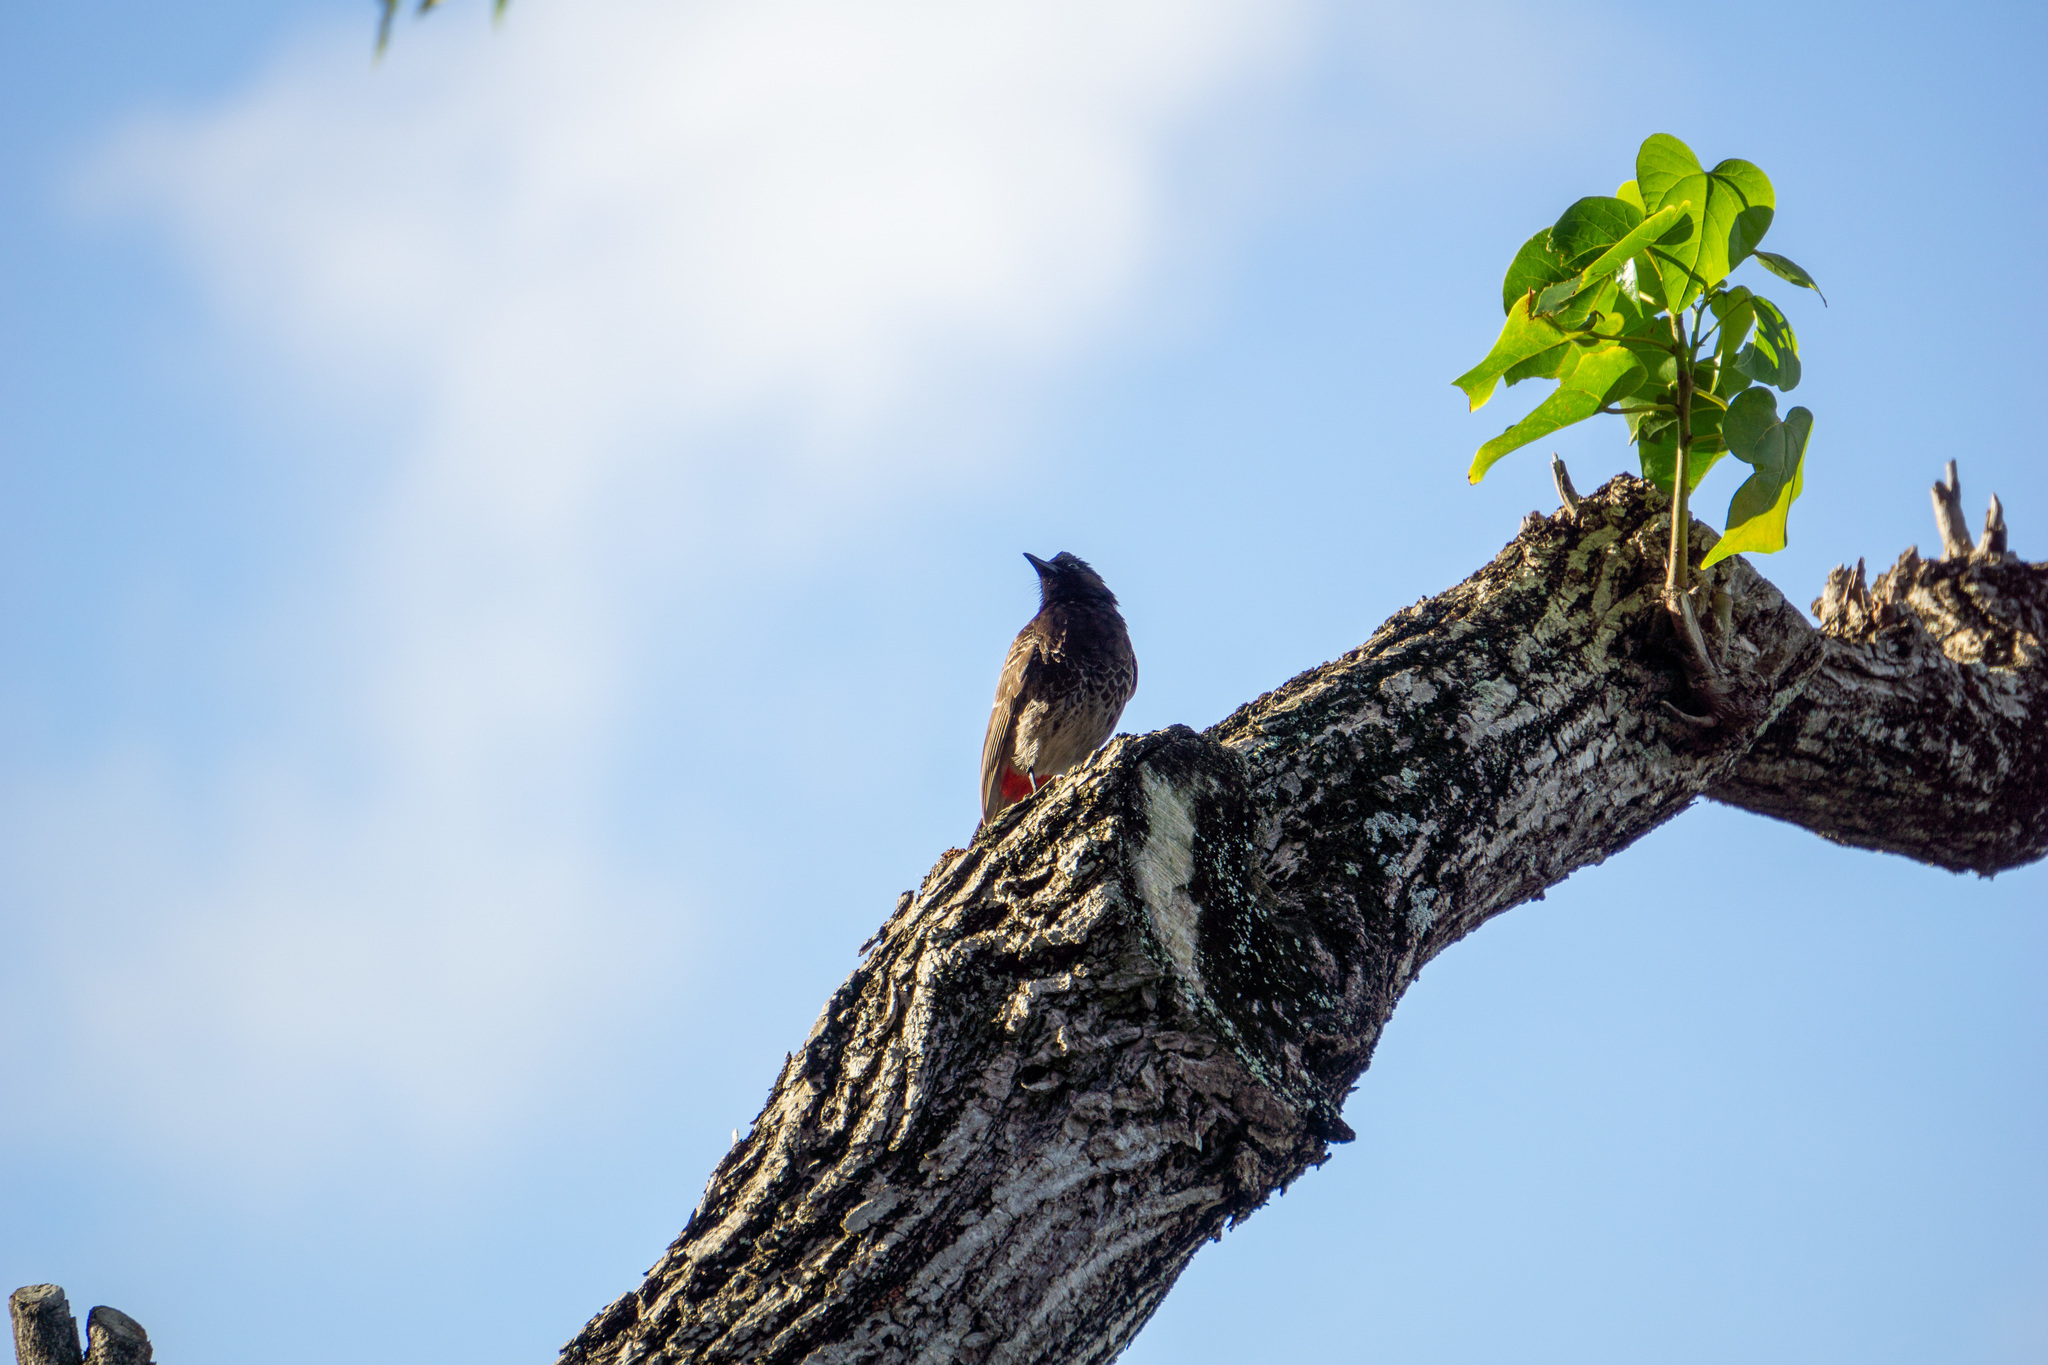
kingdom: Animalia
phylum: Chordata
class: Aves
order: Passeriformes
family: Pycnonotidae
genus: Pycnonotus
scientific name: Pycnonotus cafer
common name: Red-vented bulbul
